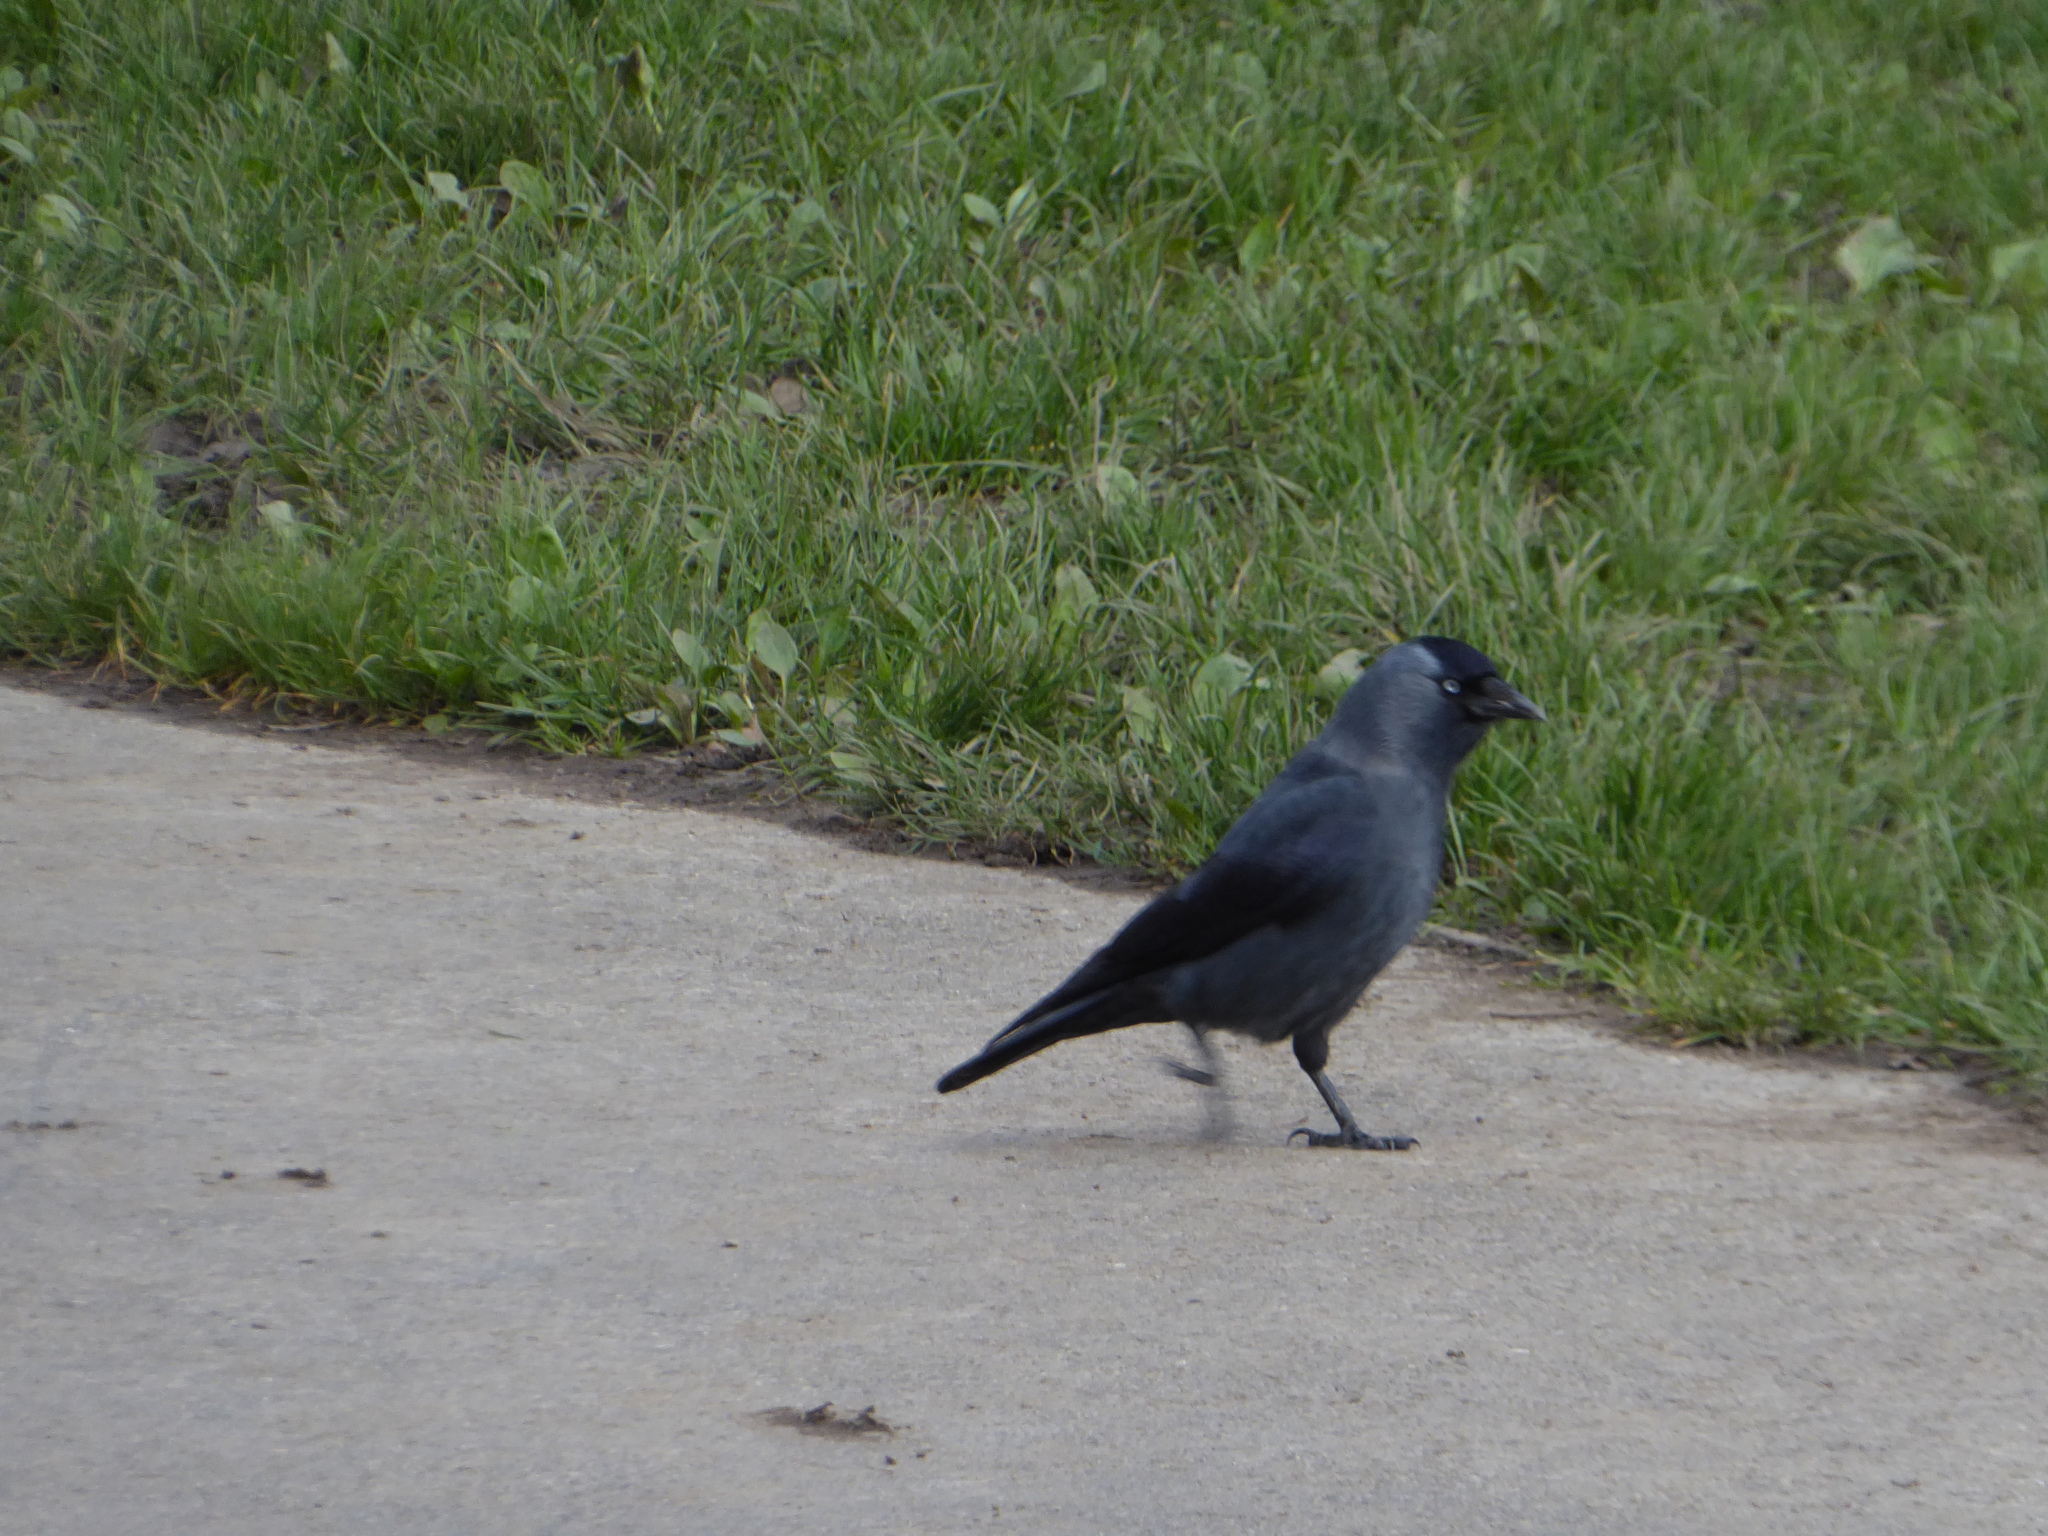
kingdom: Animalia
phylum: Chordata
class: Aves
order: Passeriformes
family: Corvidae
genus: Coloeus
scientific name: Coloeus monedula
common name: Western jackdaw
